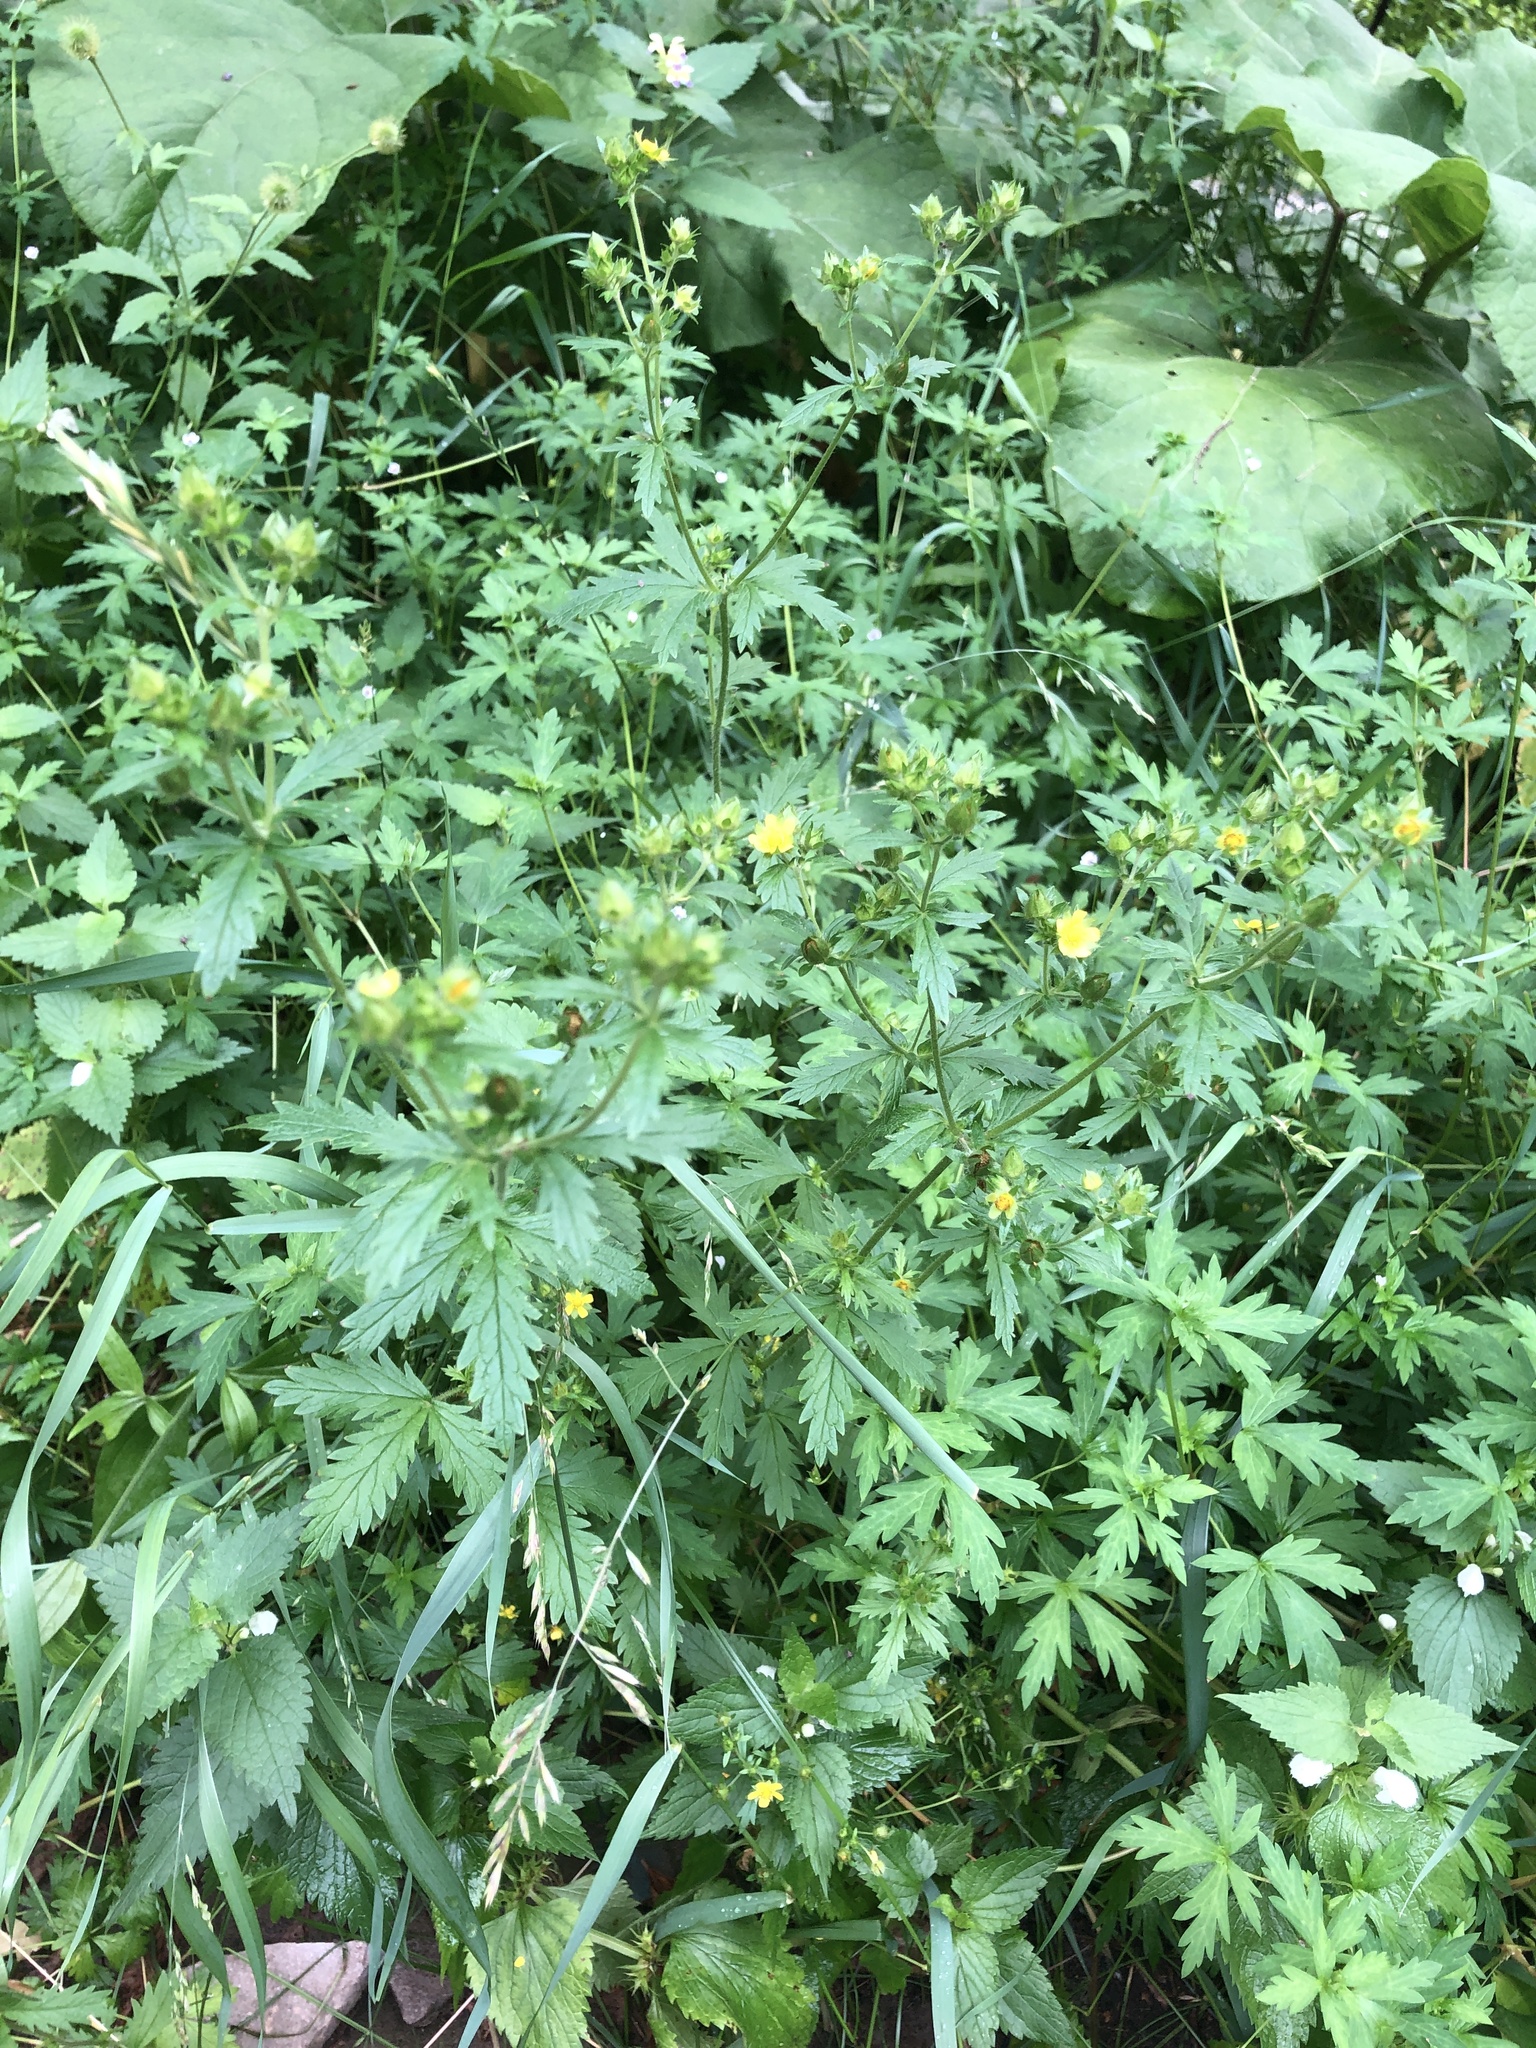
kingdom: Plantae
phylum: Tracheophyta
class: Magnoliopsida
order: Rosales
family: Rosaceae
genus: Potentilla
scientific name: Potentilla norvegica
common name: Ternate-leaved cinquefoil
